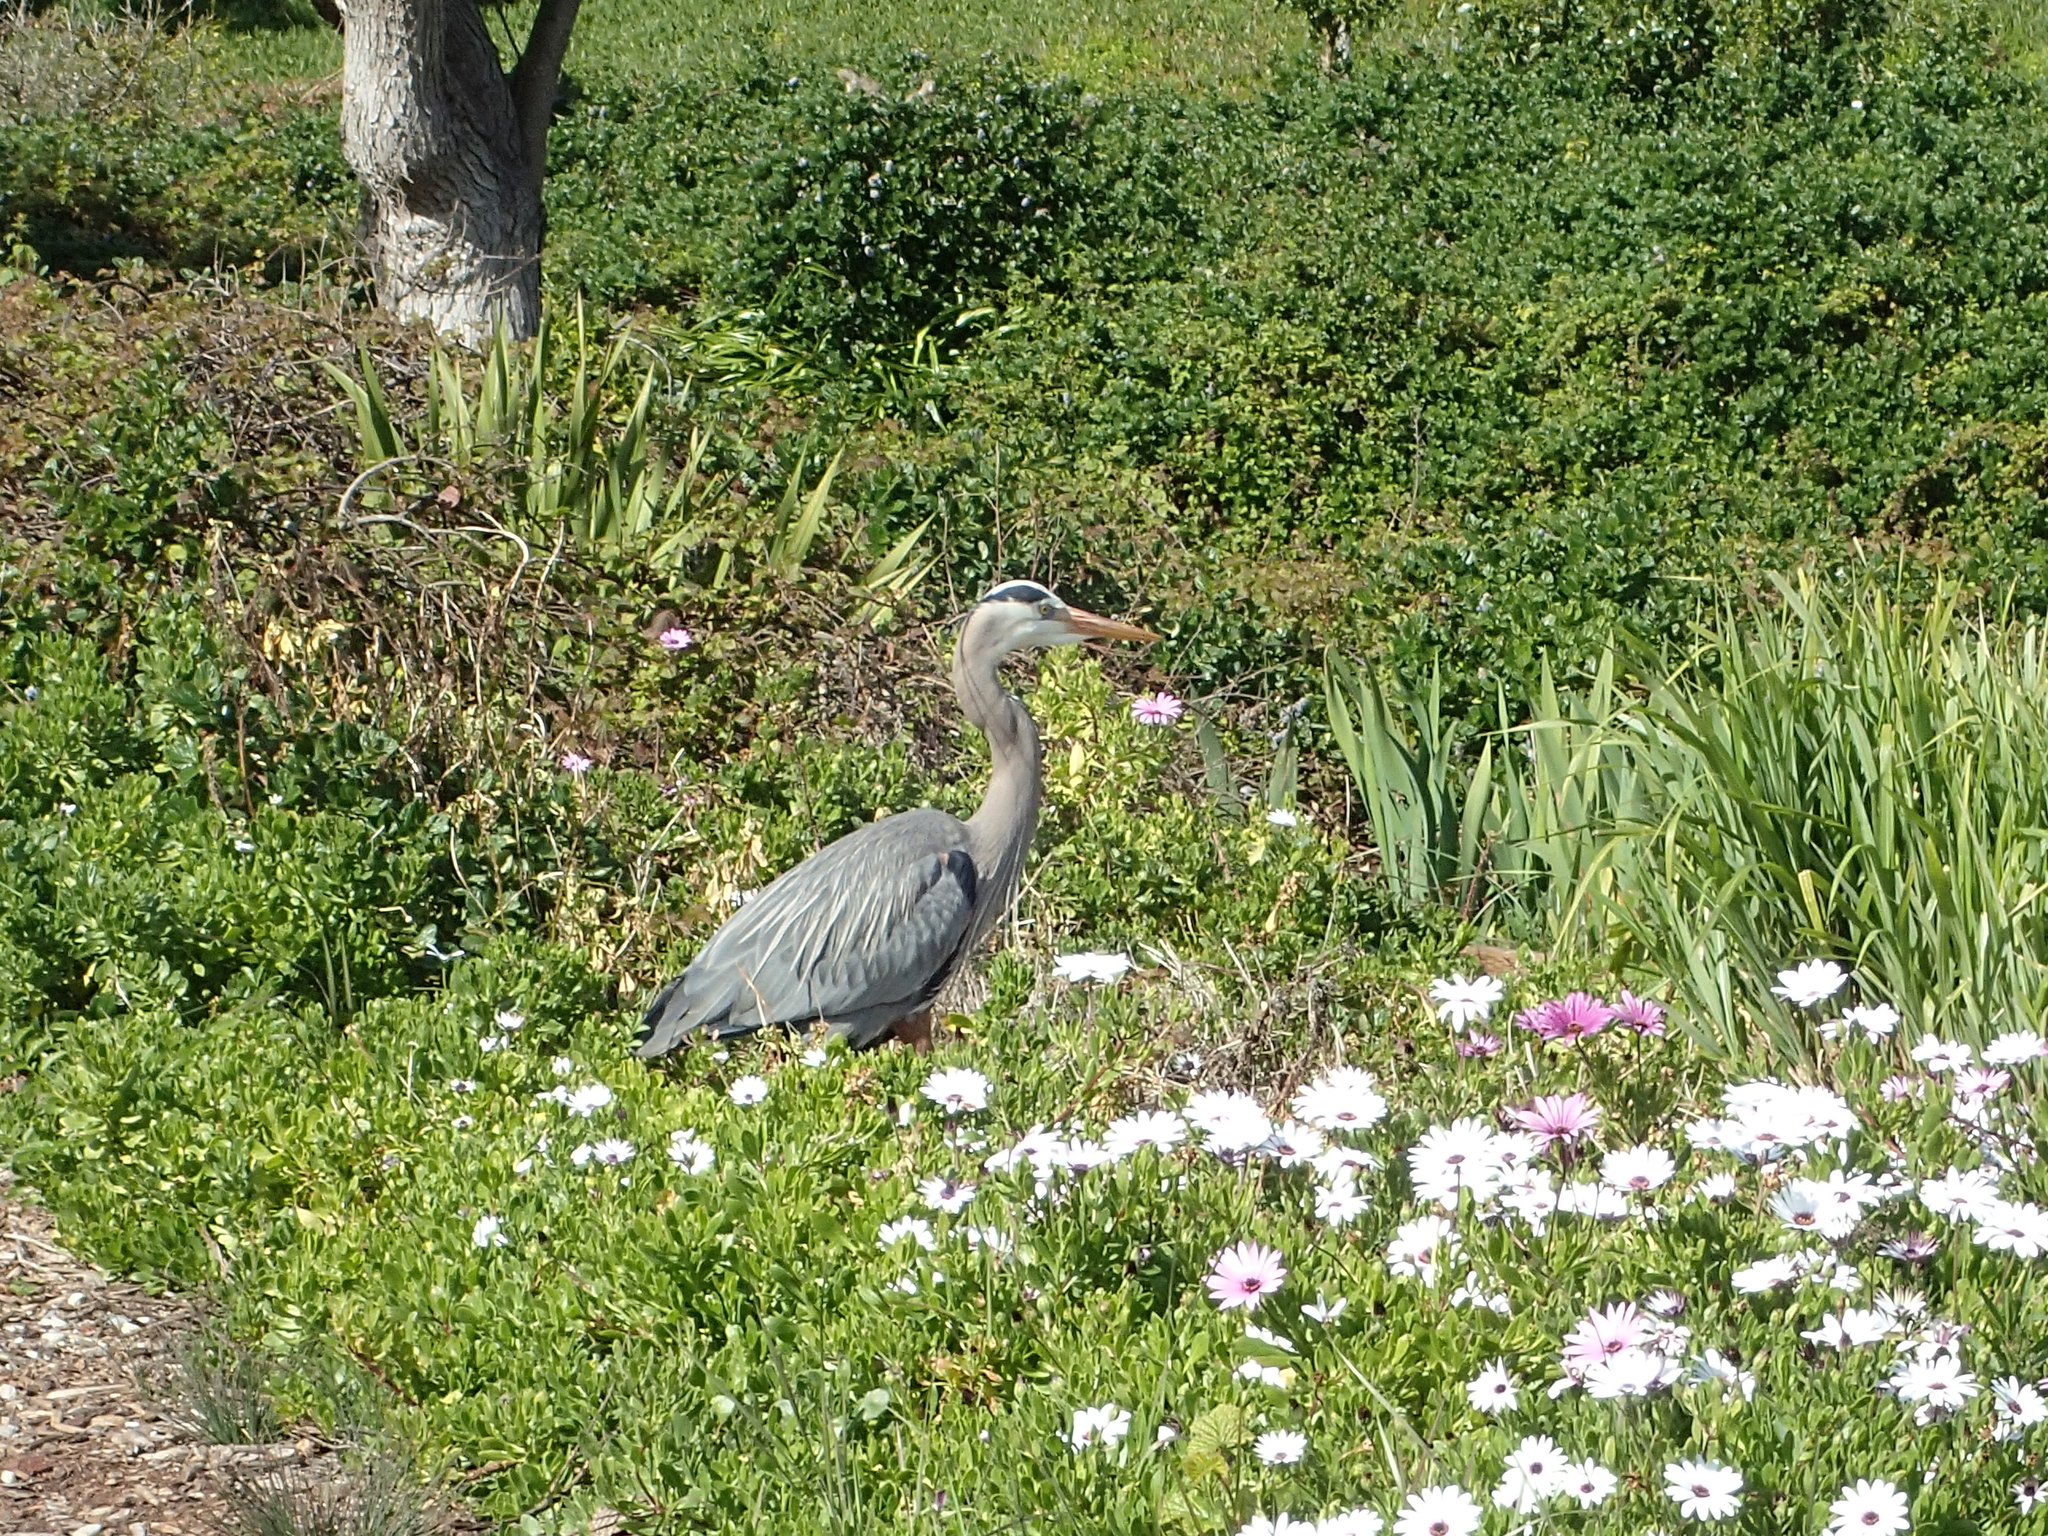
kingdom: Animalia
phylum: Chordata
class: Aves
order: Pelecaniformes
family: Ardeidae
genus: Ardea
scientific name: Ardea herodias
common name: Great blue heron
